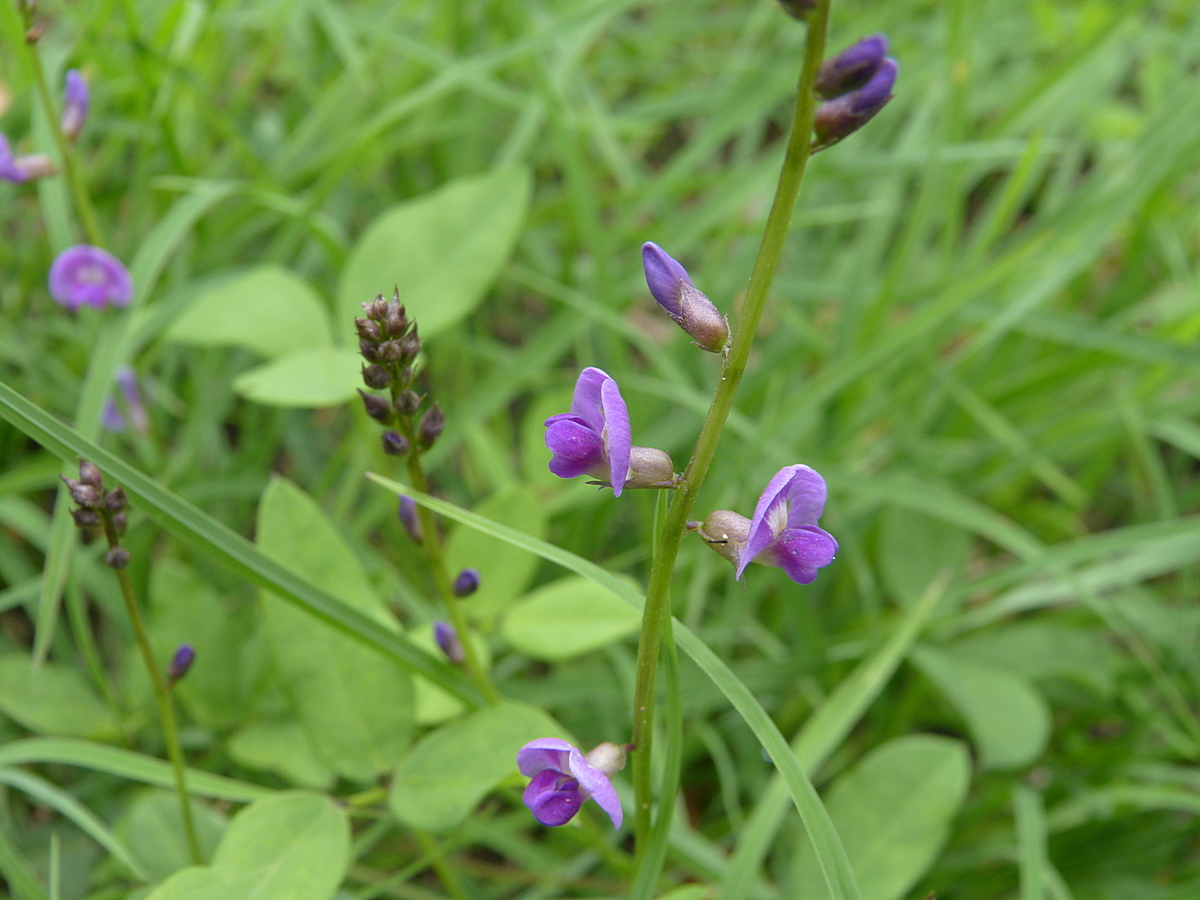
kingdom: Plantae
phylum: Tracheophyta
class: Magnoliopsida
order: Fabales
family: Fabaceae
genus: Glycine
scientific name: Glycine tabacina
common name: Pea glycine
